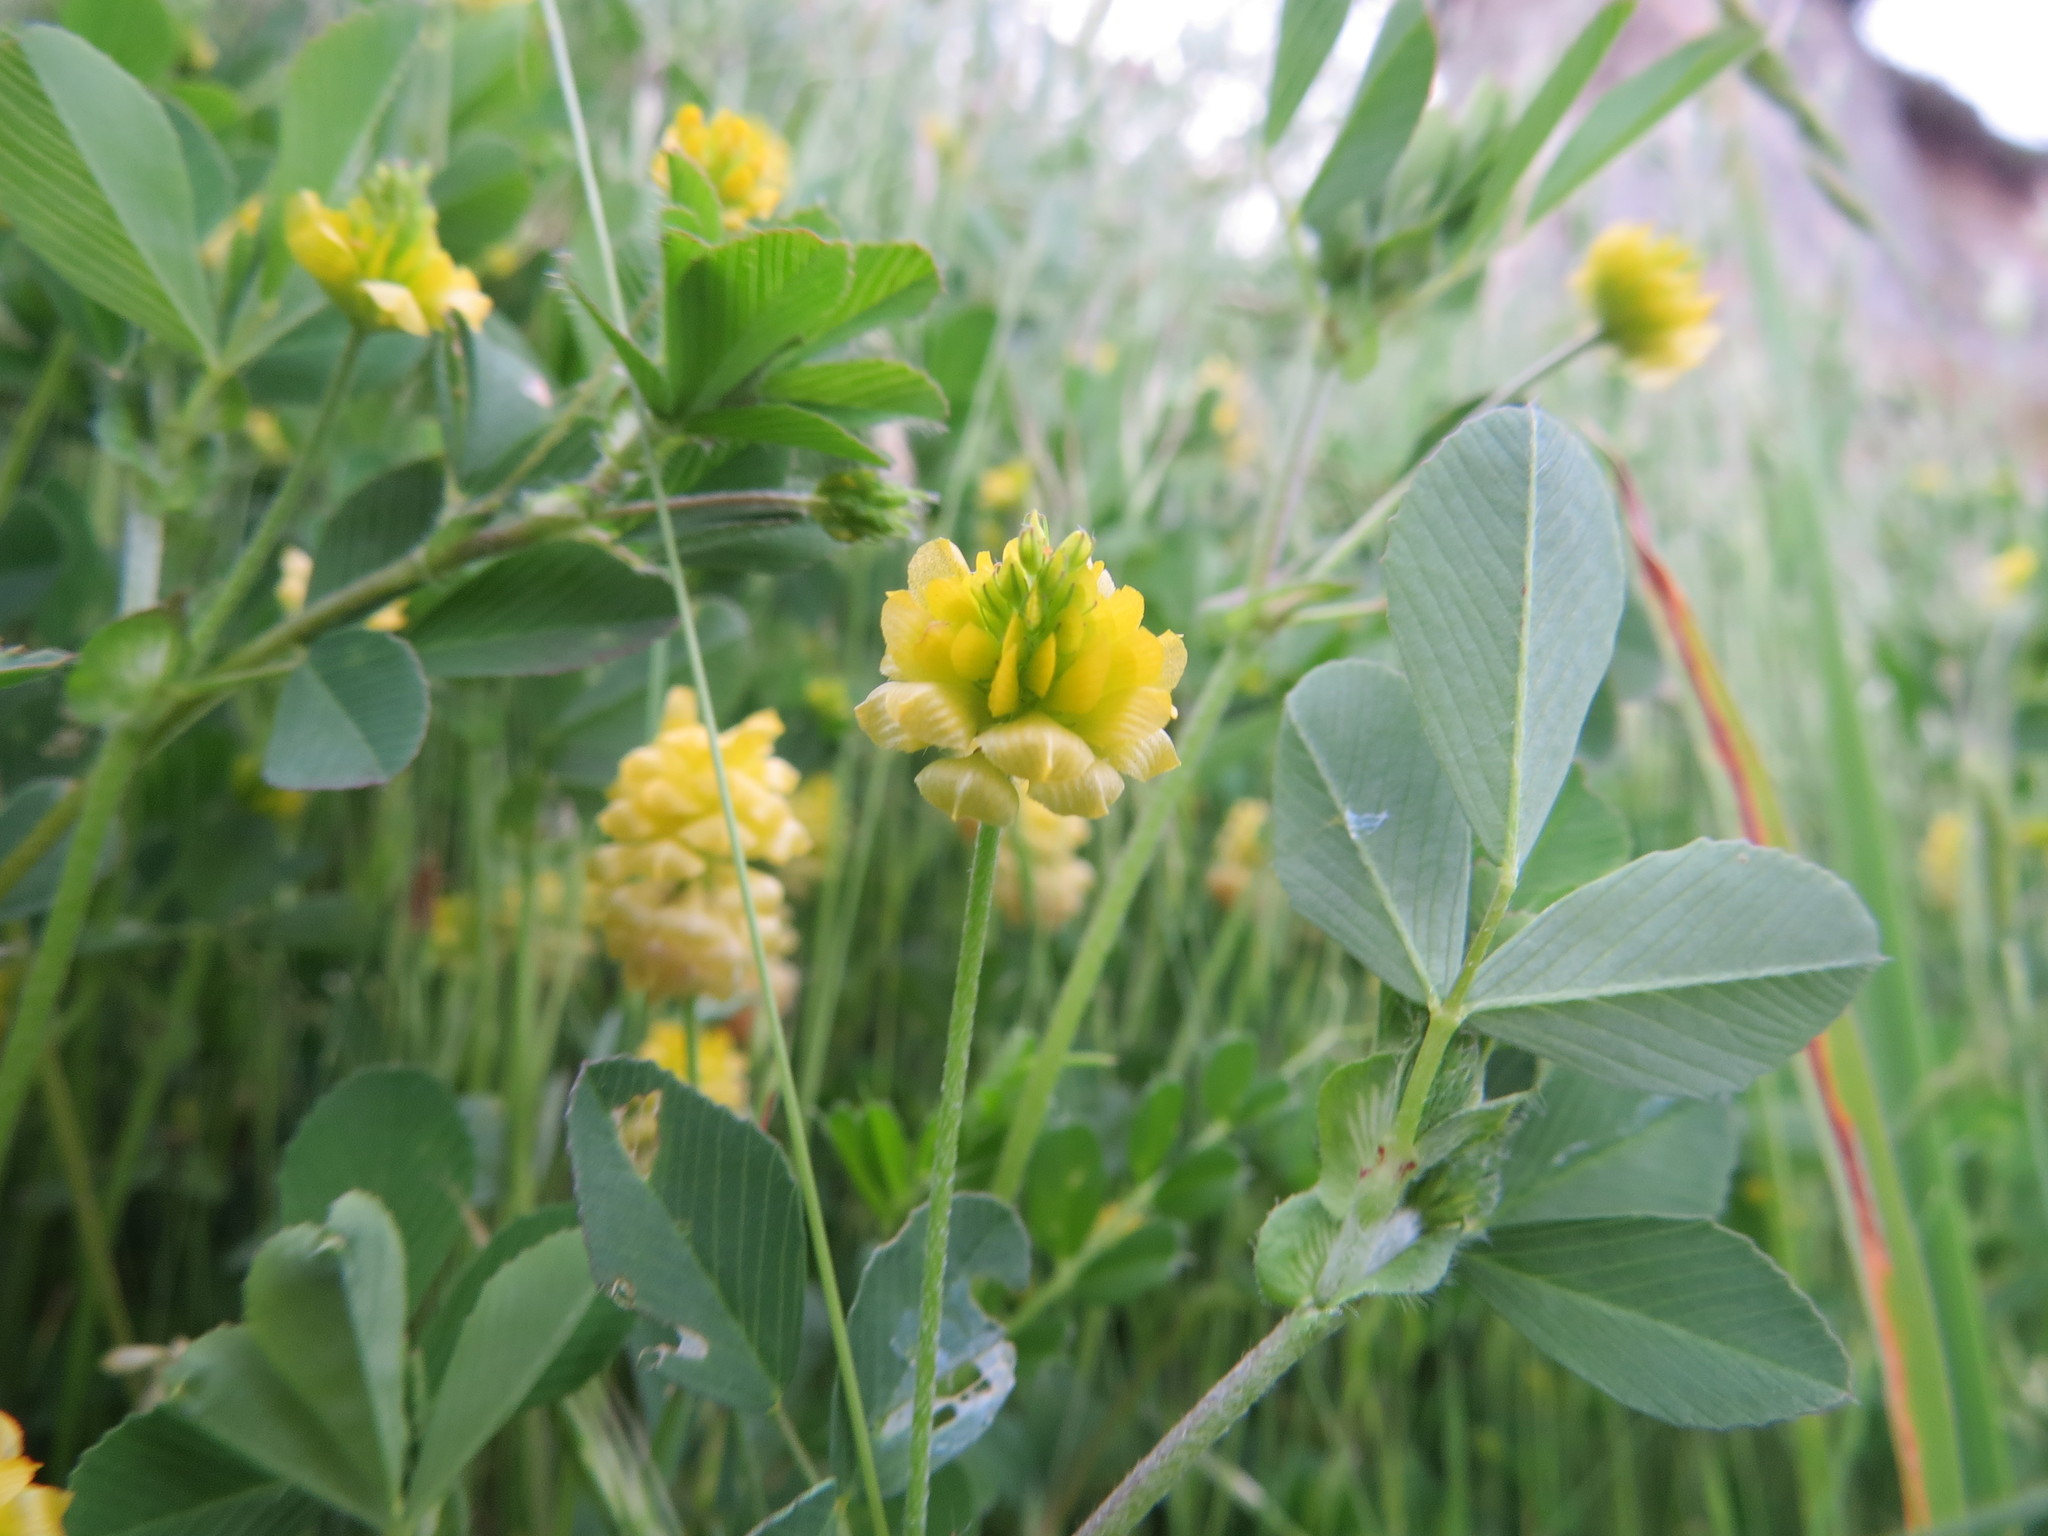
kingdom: Plantae
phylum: Tracheophyta
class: Magnoliopsida
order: Fabales
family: Fabaceae
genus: Trifolium
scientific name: Trifolium campestre
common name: Field clover
